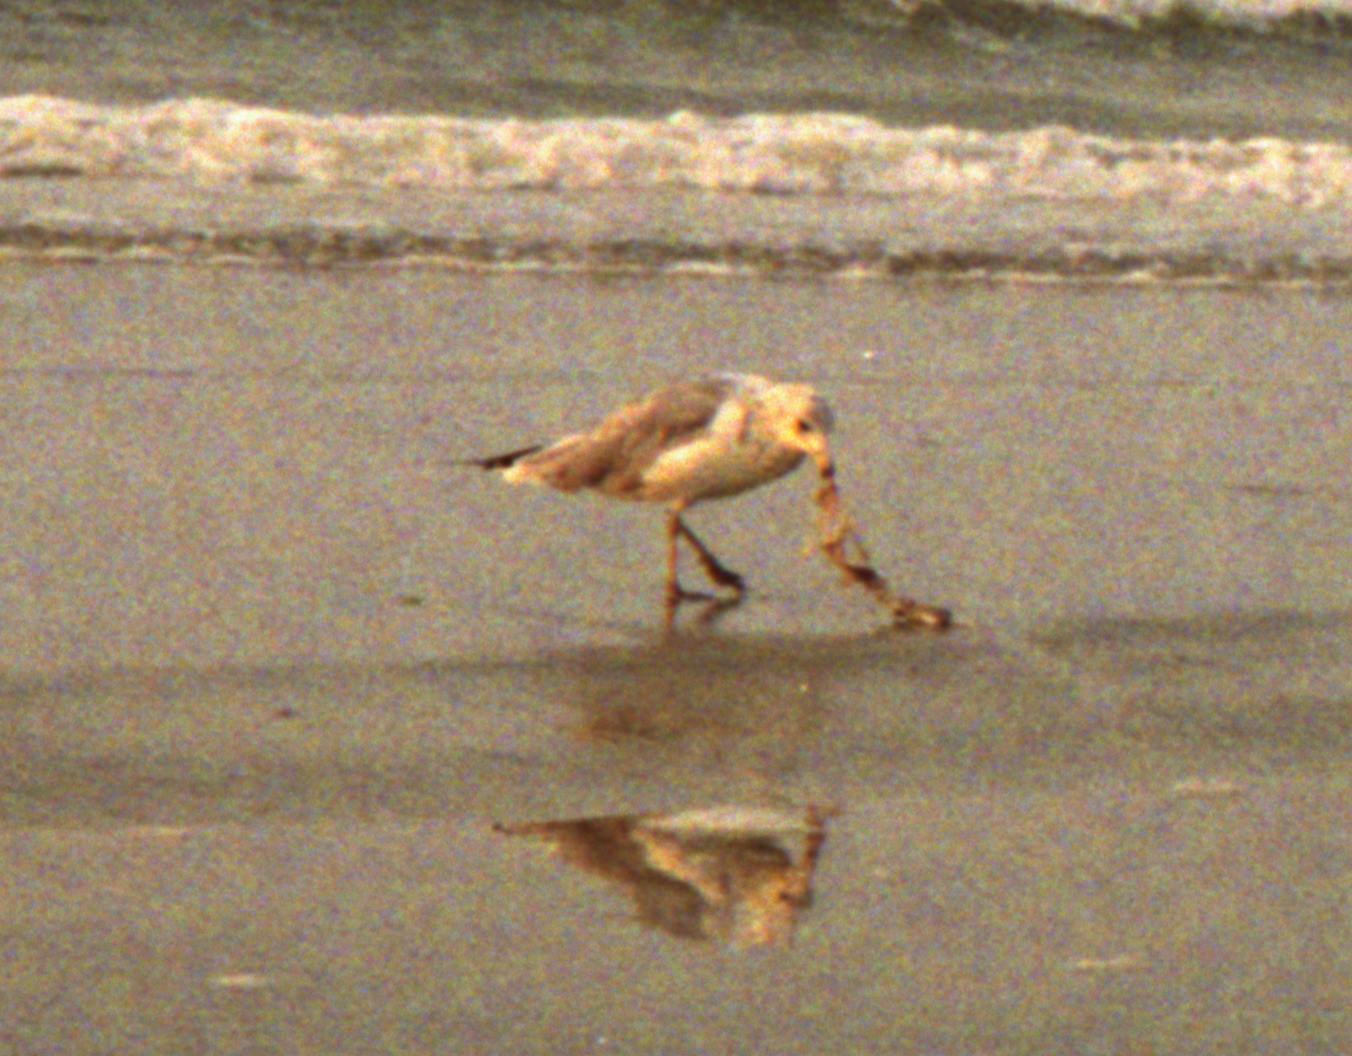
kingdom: Animalia
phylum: Chordata
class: Aves
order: Charadriiformes
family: Laridae
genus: Larus
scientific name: Larus delawarensis
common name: Ring-billed gull
